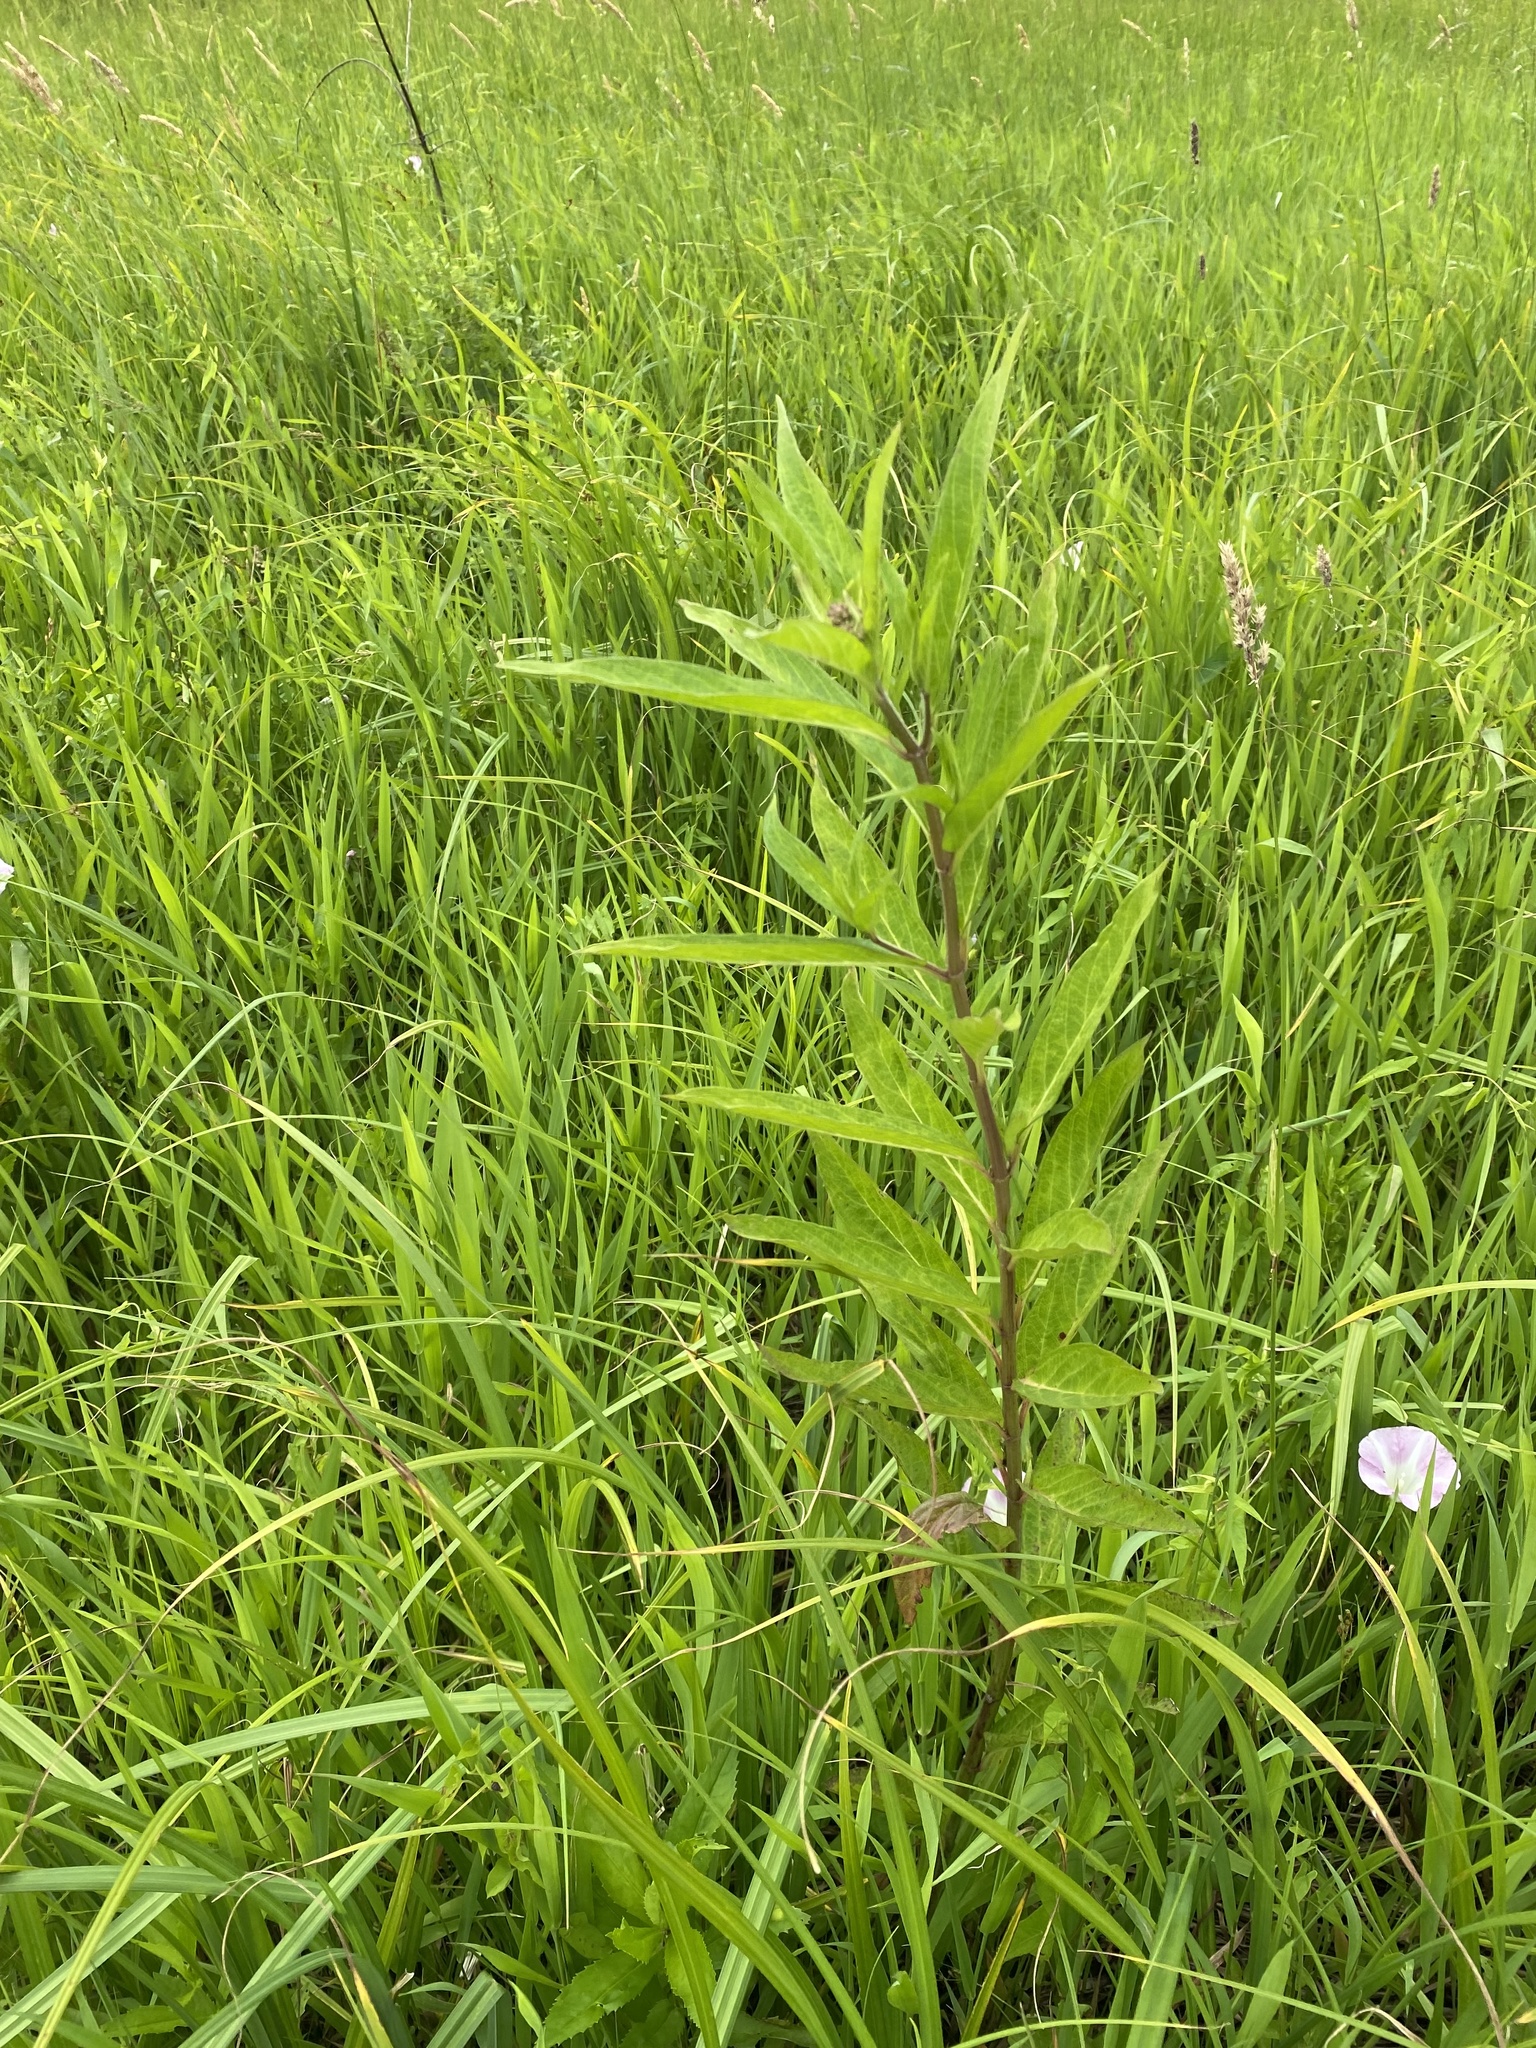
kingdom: Plantae
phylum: Tracheophyta
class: Magnoliopsida
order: Gentianales
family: Apocynaceae
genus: Asclepias
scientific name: Asclepias incarnata
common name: Swamp milkweed
